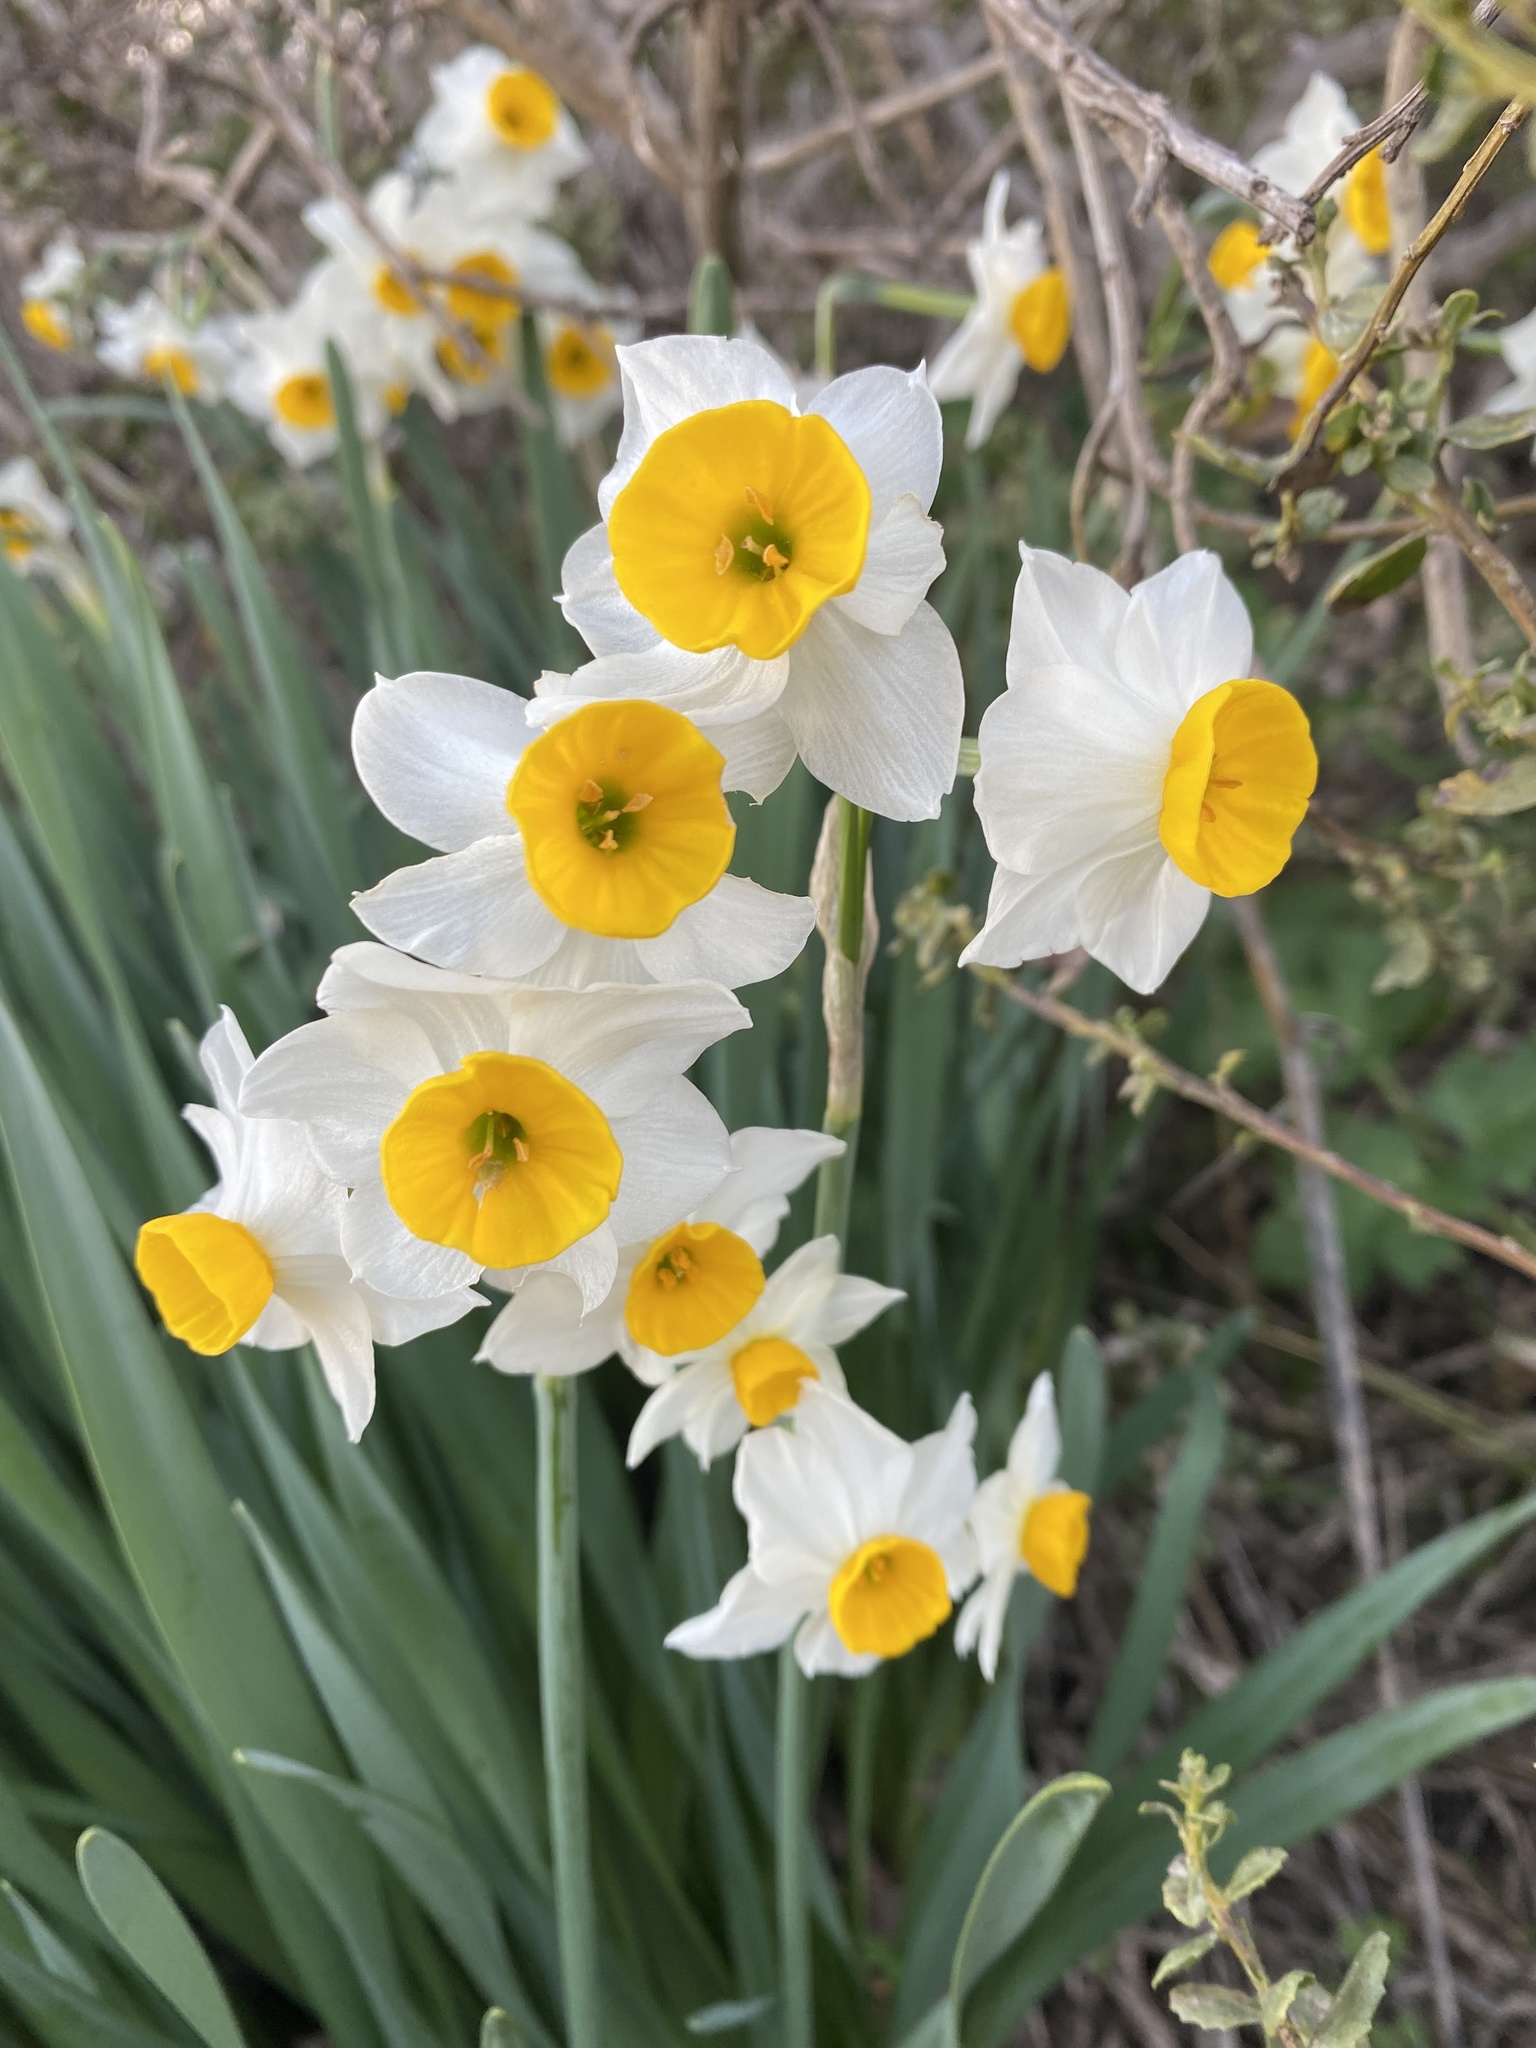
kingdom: Plantae
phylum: Tracheophyta
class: Liliopsida
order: Asparagales
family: Amaryllidaceae
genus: Narcissus
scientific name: Narcissus tazetta
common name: Bunch-flowered daffodil
